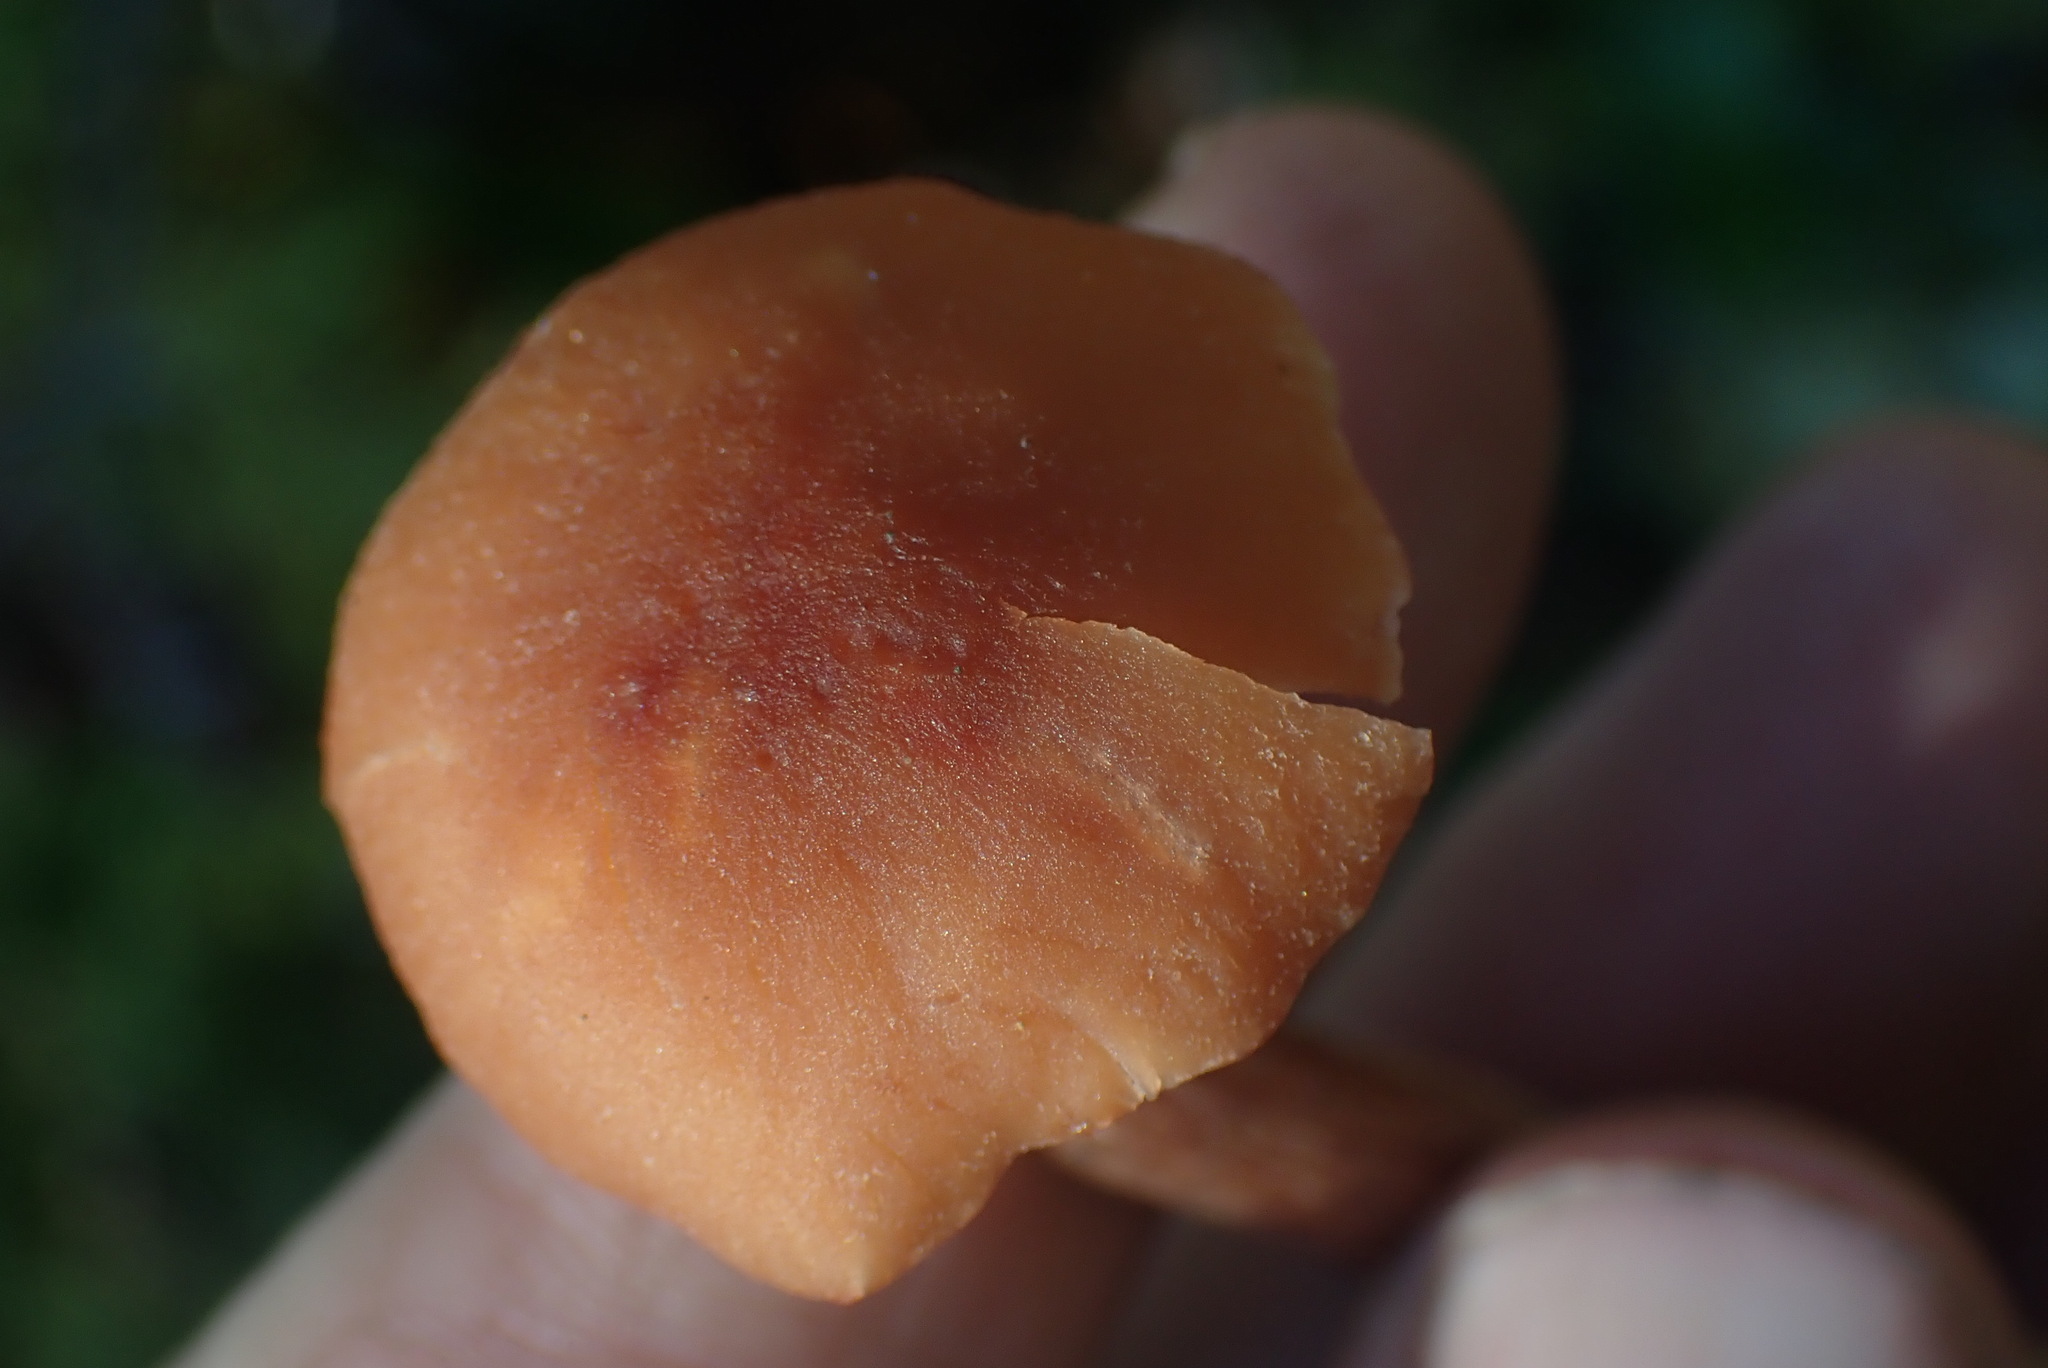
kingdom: Fungi
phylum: Basidiomycota
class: Agaricomycetes
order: Agaricales
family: Hydnangiaceae
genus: Laccaria
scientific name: Laccaria laccata
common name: Deceiver
